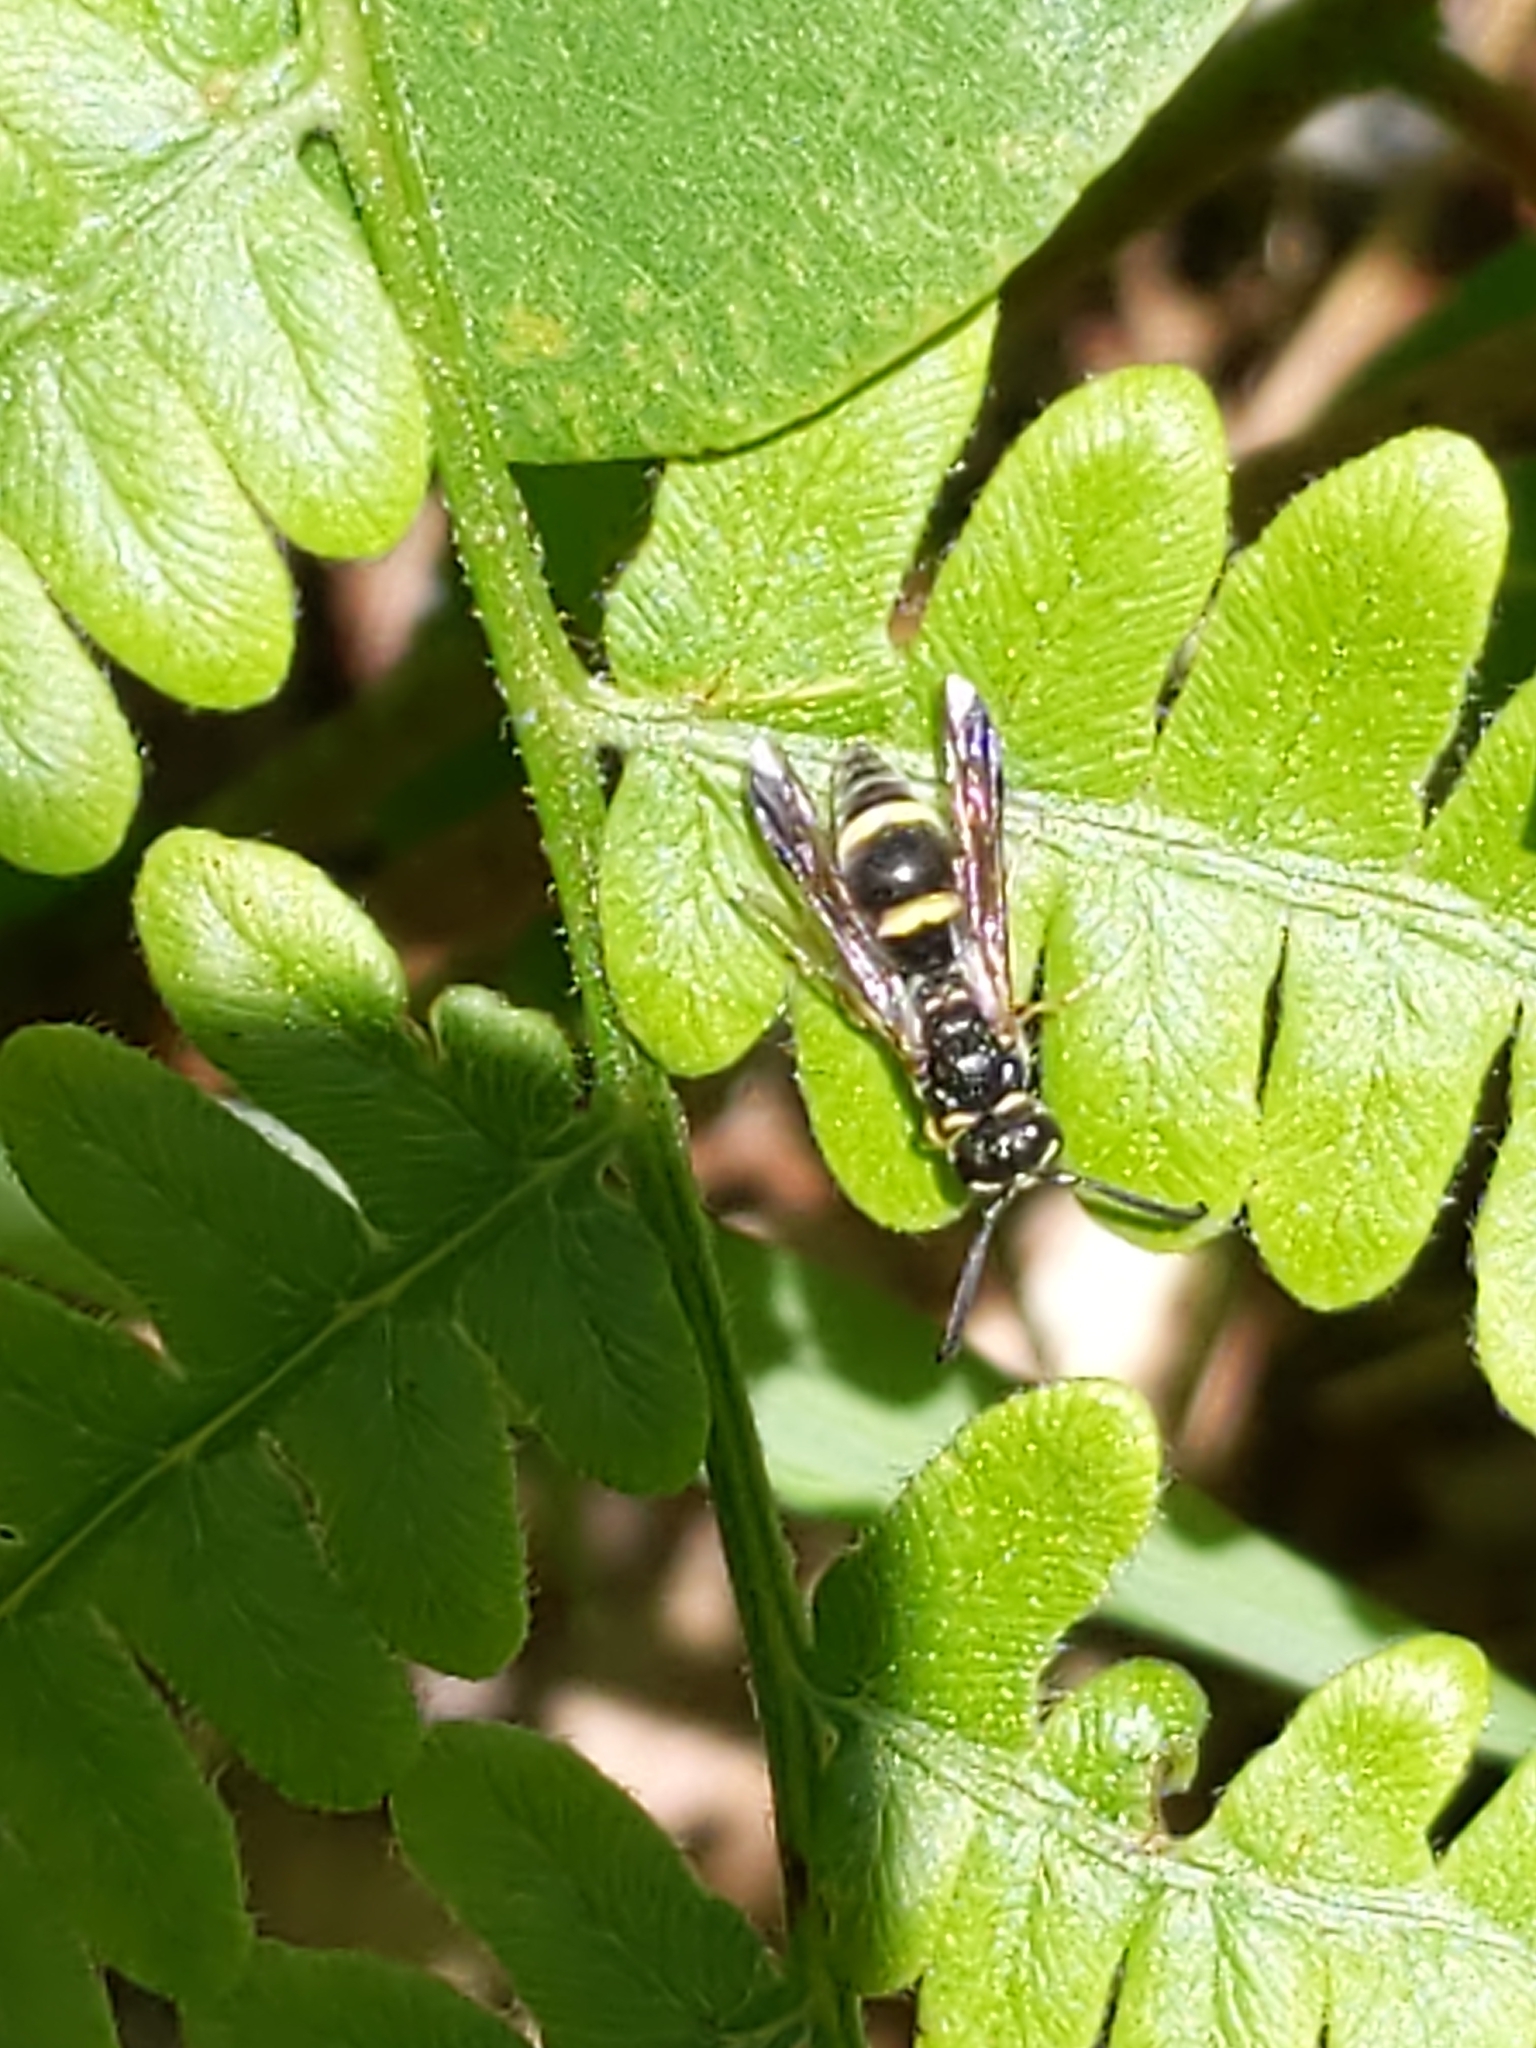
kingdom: Animalia
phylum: Arthropoda
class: Insecta
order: Hymenoptera
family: Eumenidae
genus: Parancistrocerus
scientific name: Parancistrocerus pensylvanicus
